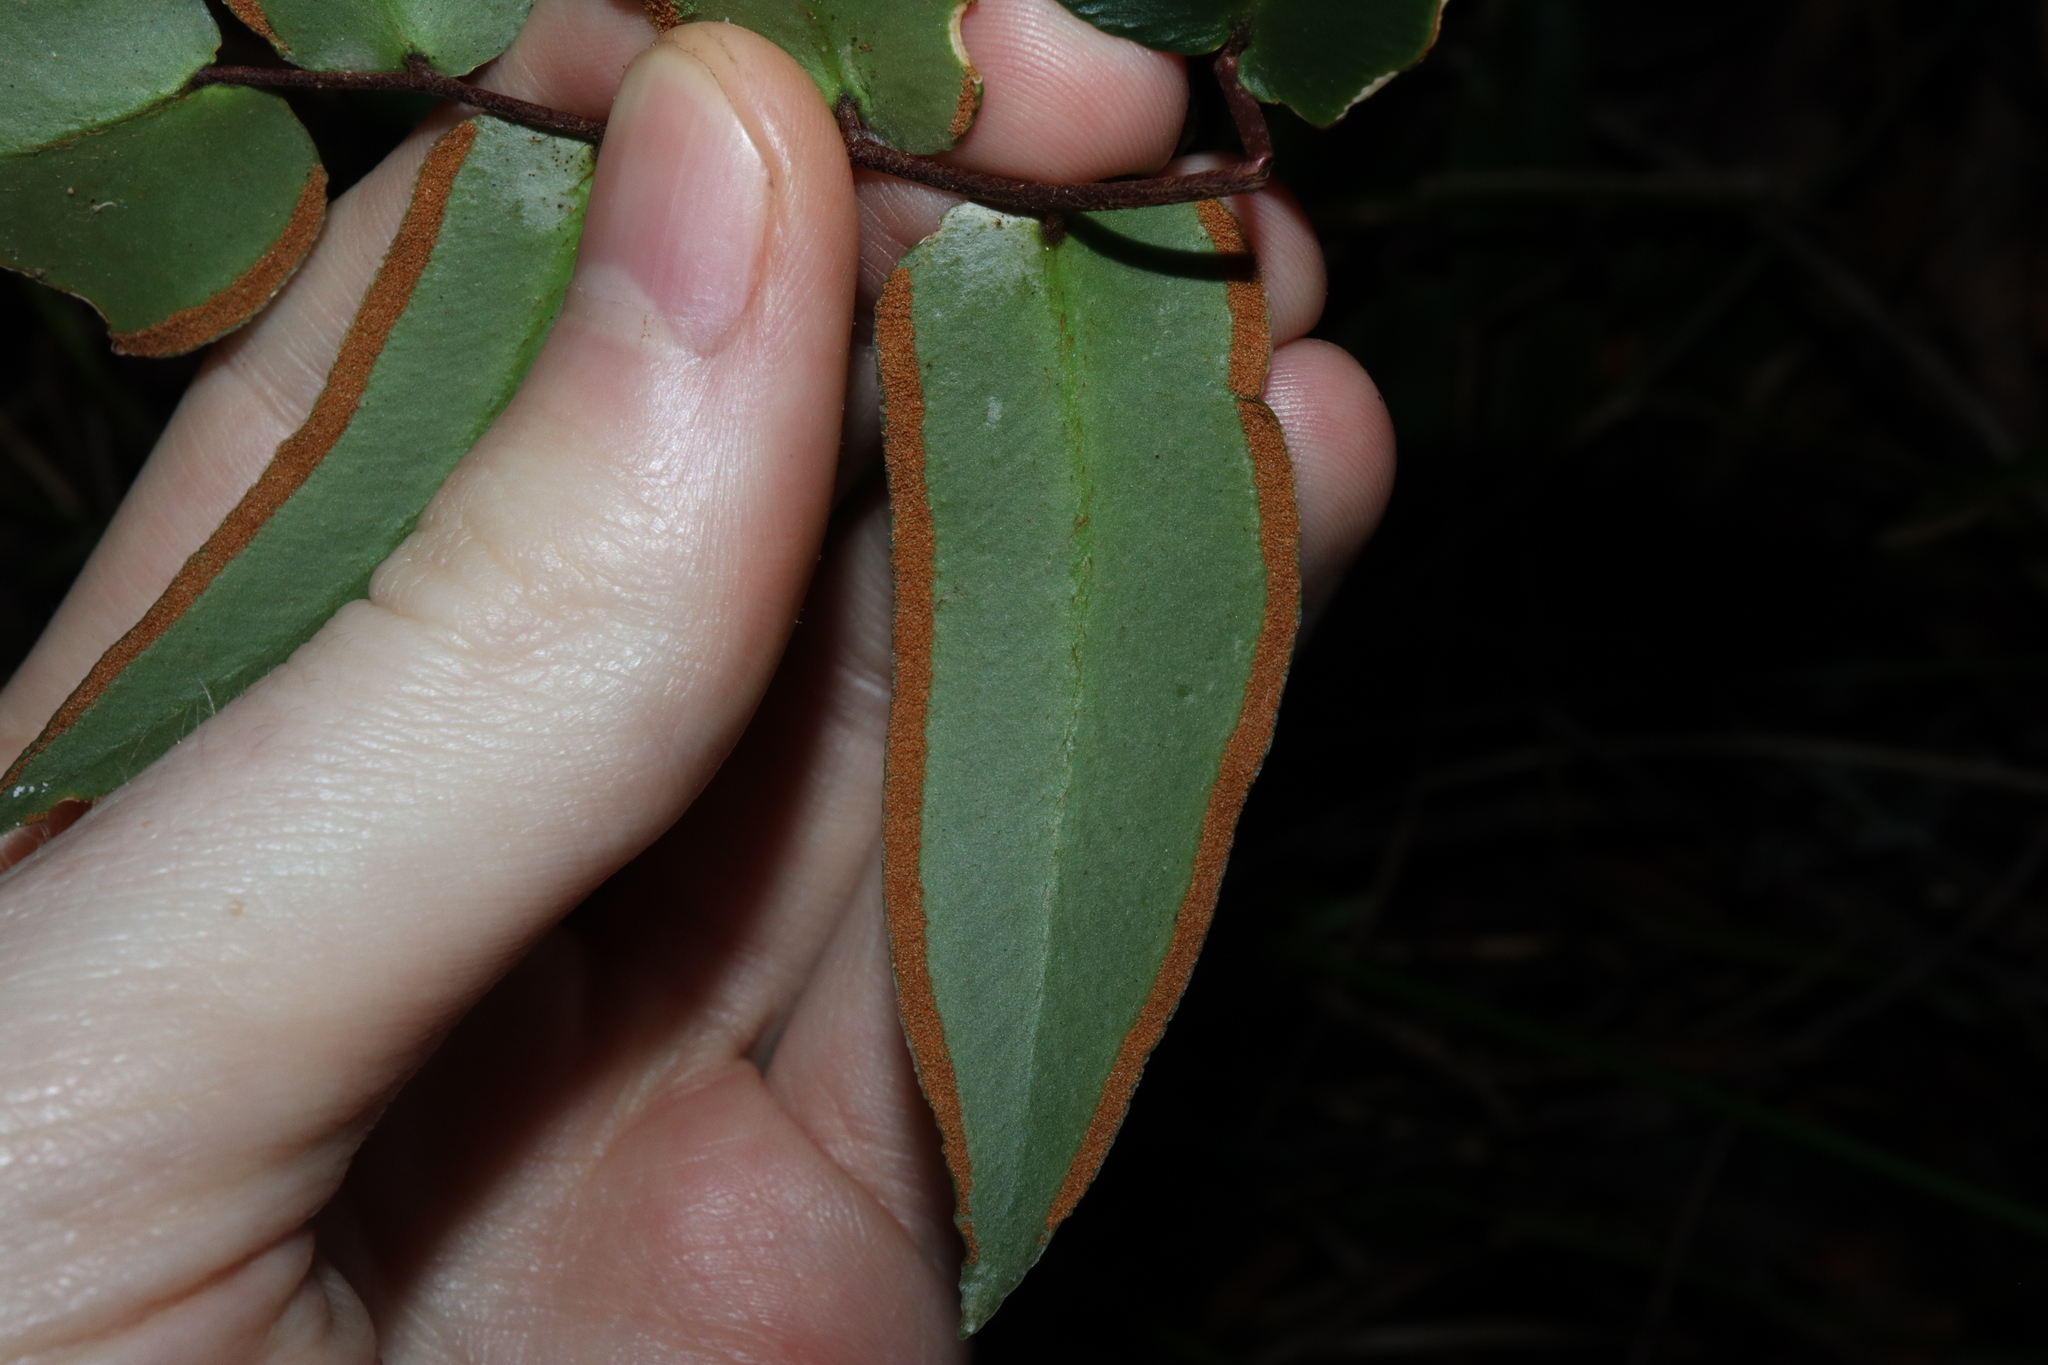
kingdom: Plantae
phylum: Tracheophyta
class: Polypodiopsida
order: Polypodiales
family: Pteridaceae
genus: Pellaea
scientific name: Pellaea paradoxa
